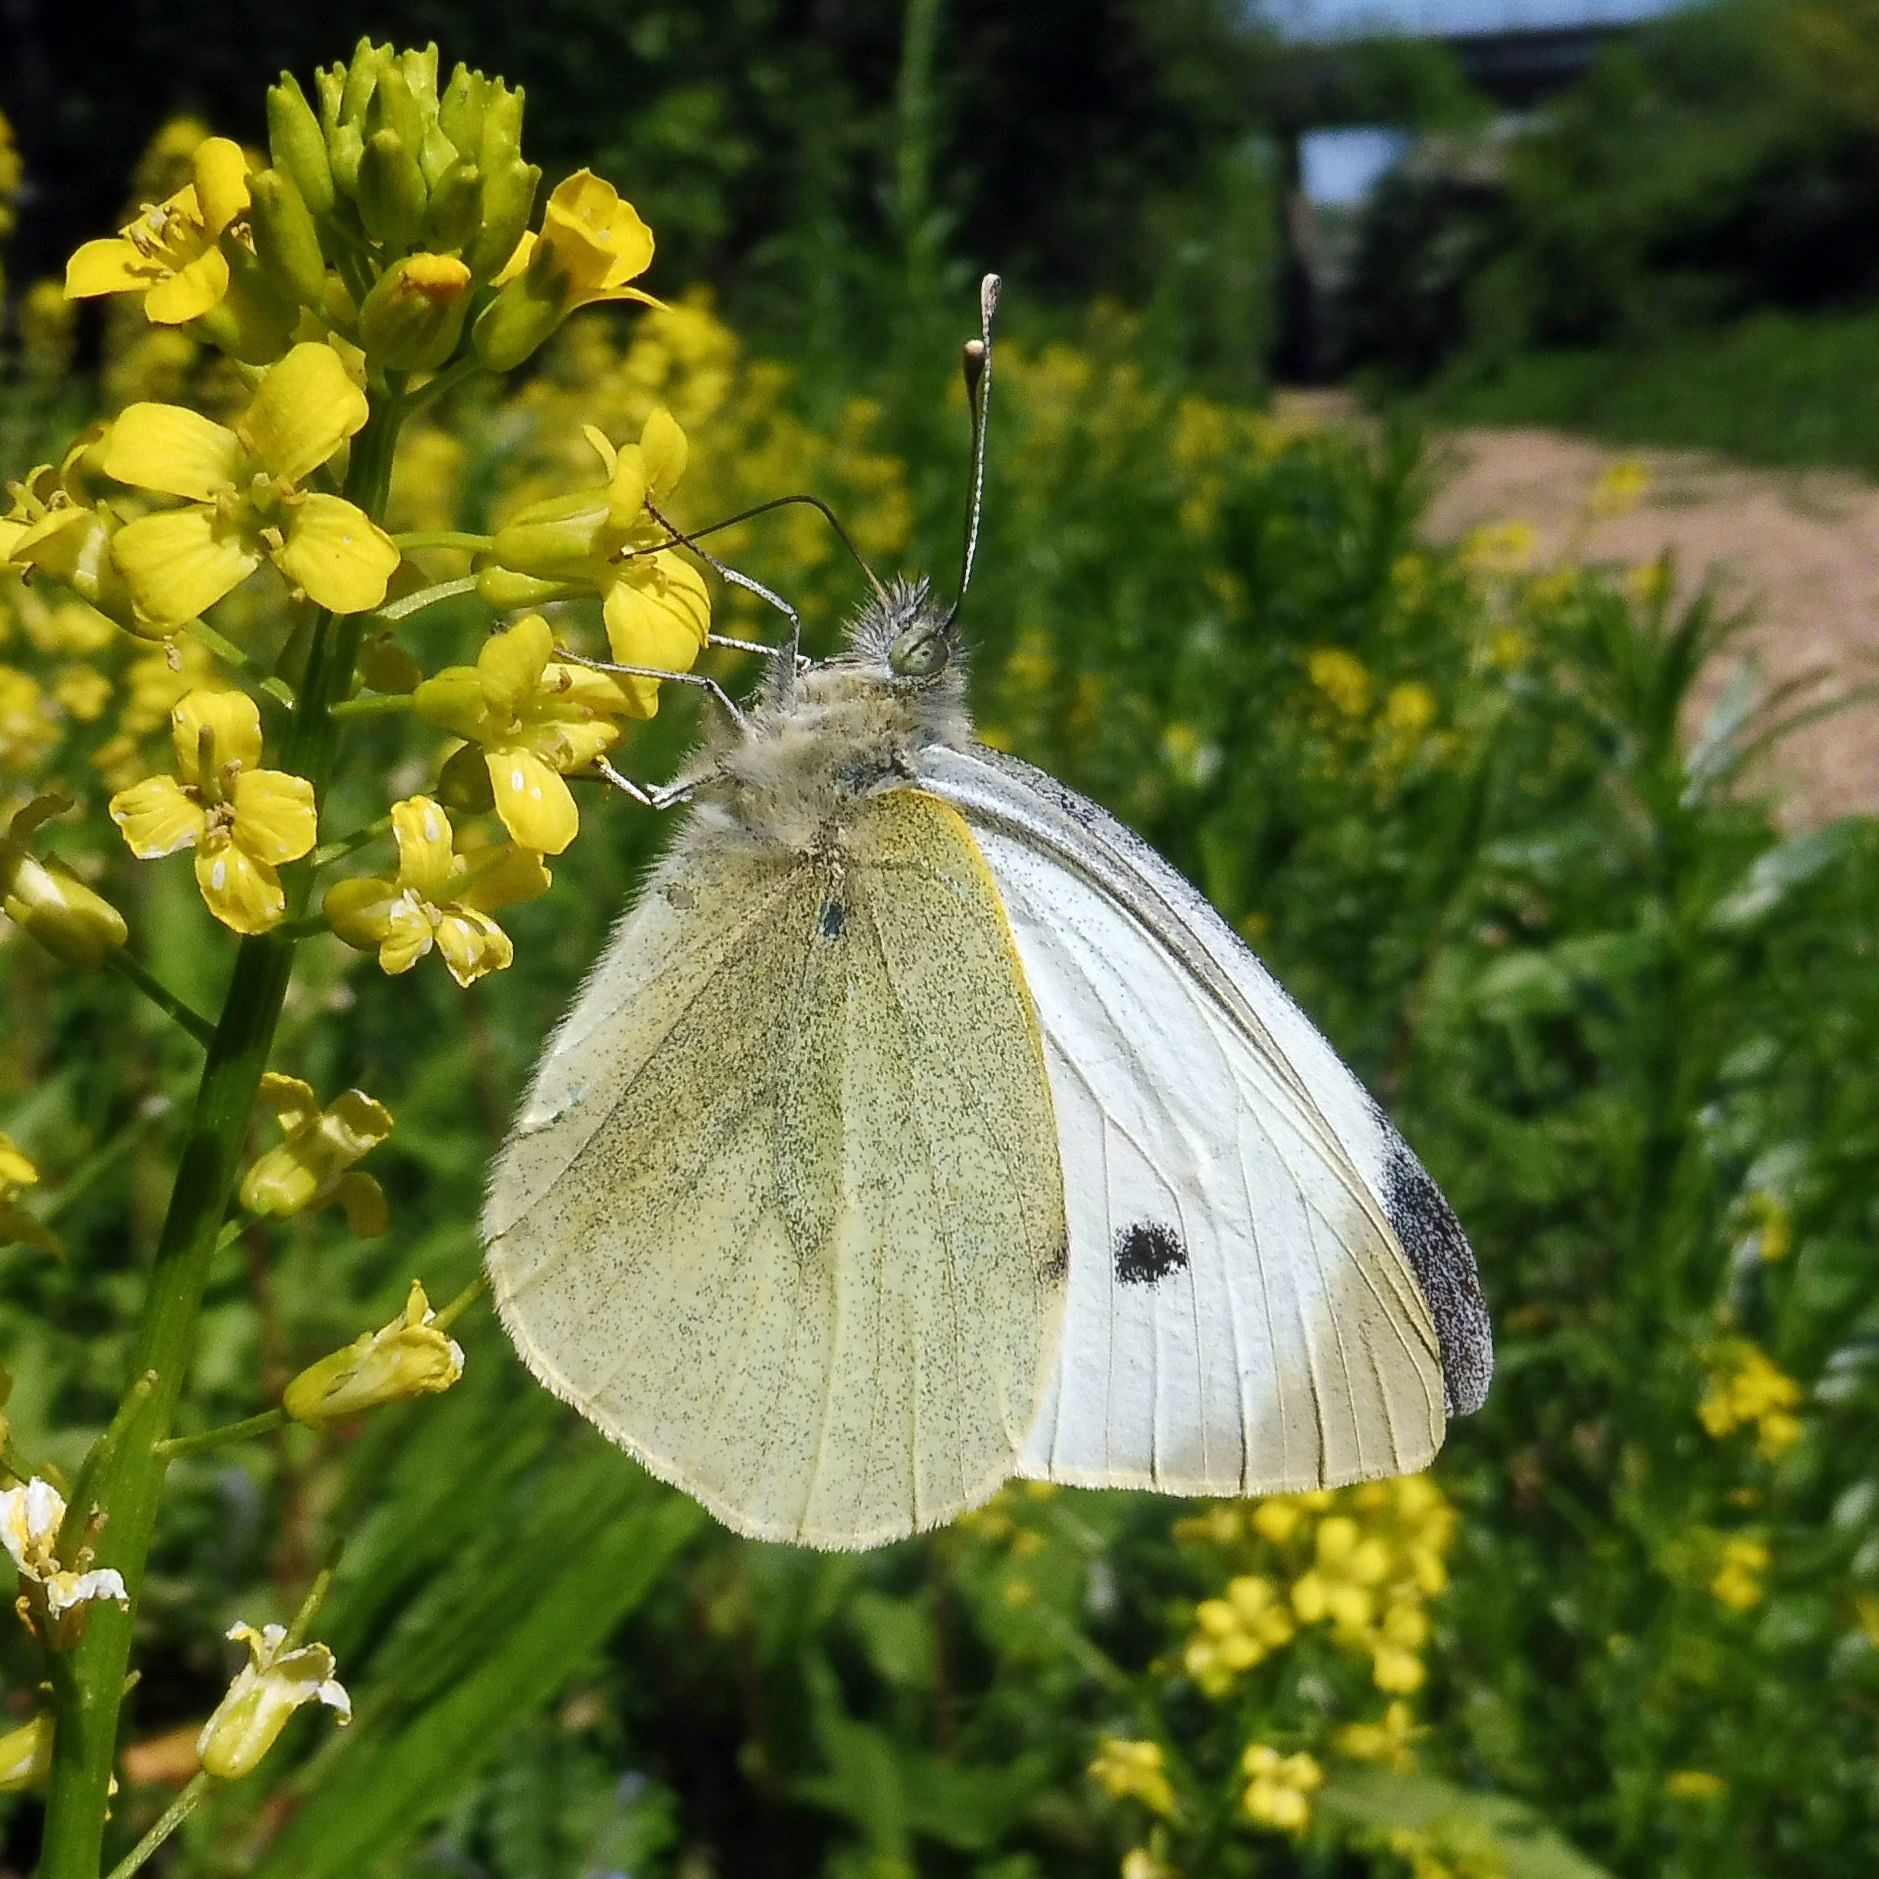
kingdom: Animalia
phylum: Arthropoda
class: Insecta
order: Lepidoptera
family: Pieridae
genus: Pieris
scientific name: Pieris brassicae
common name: Large white
